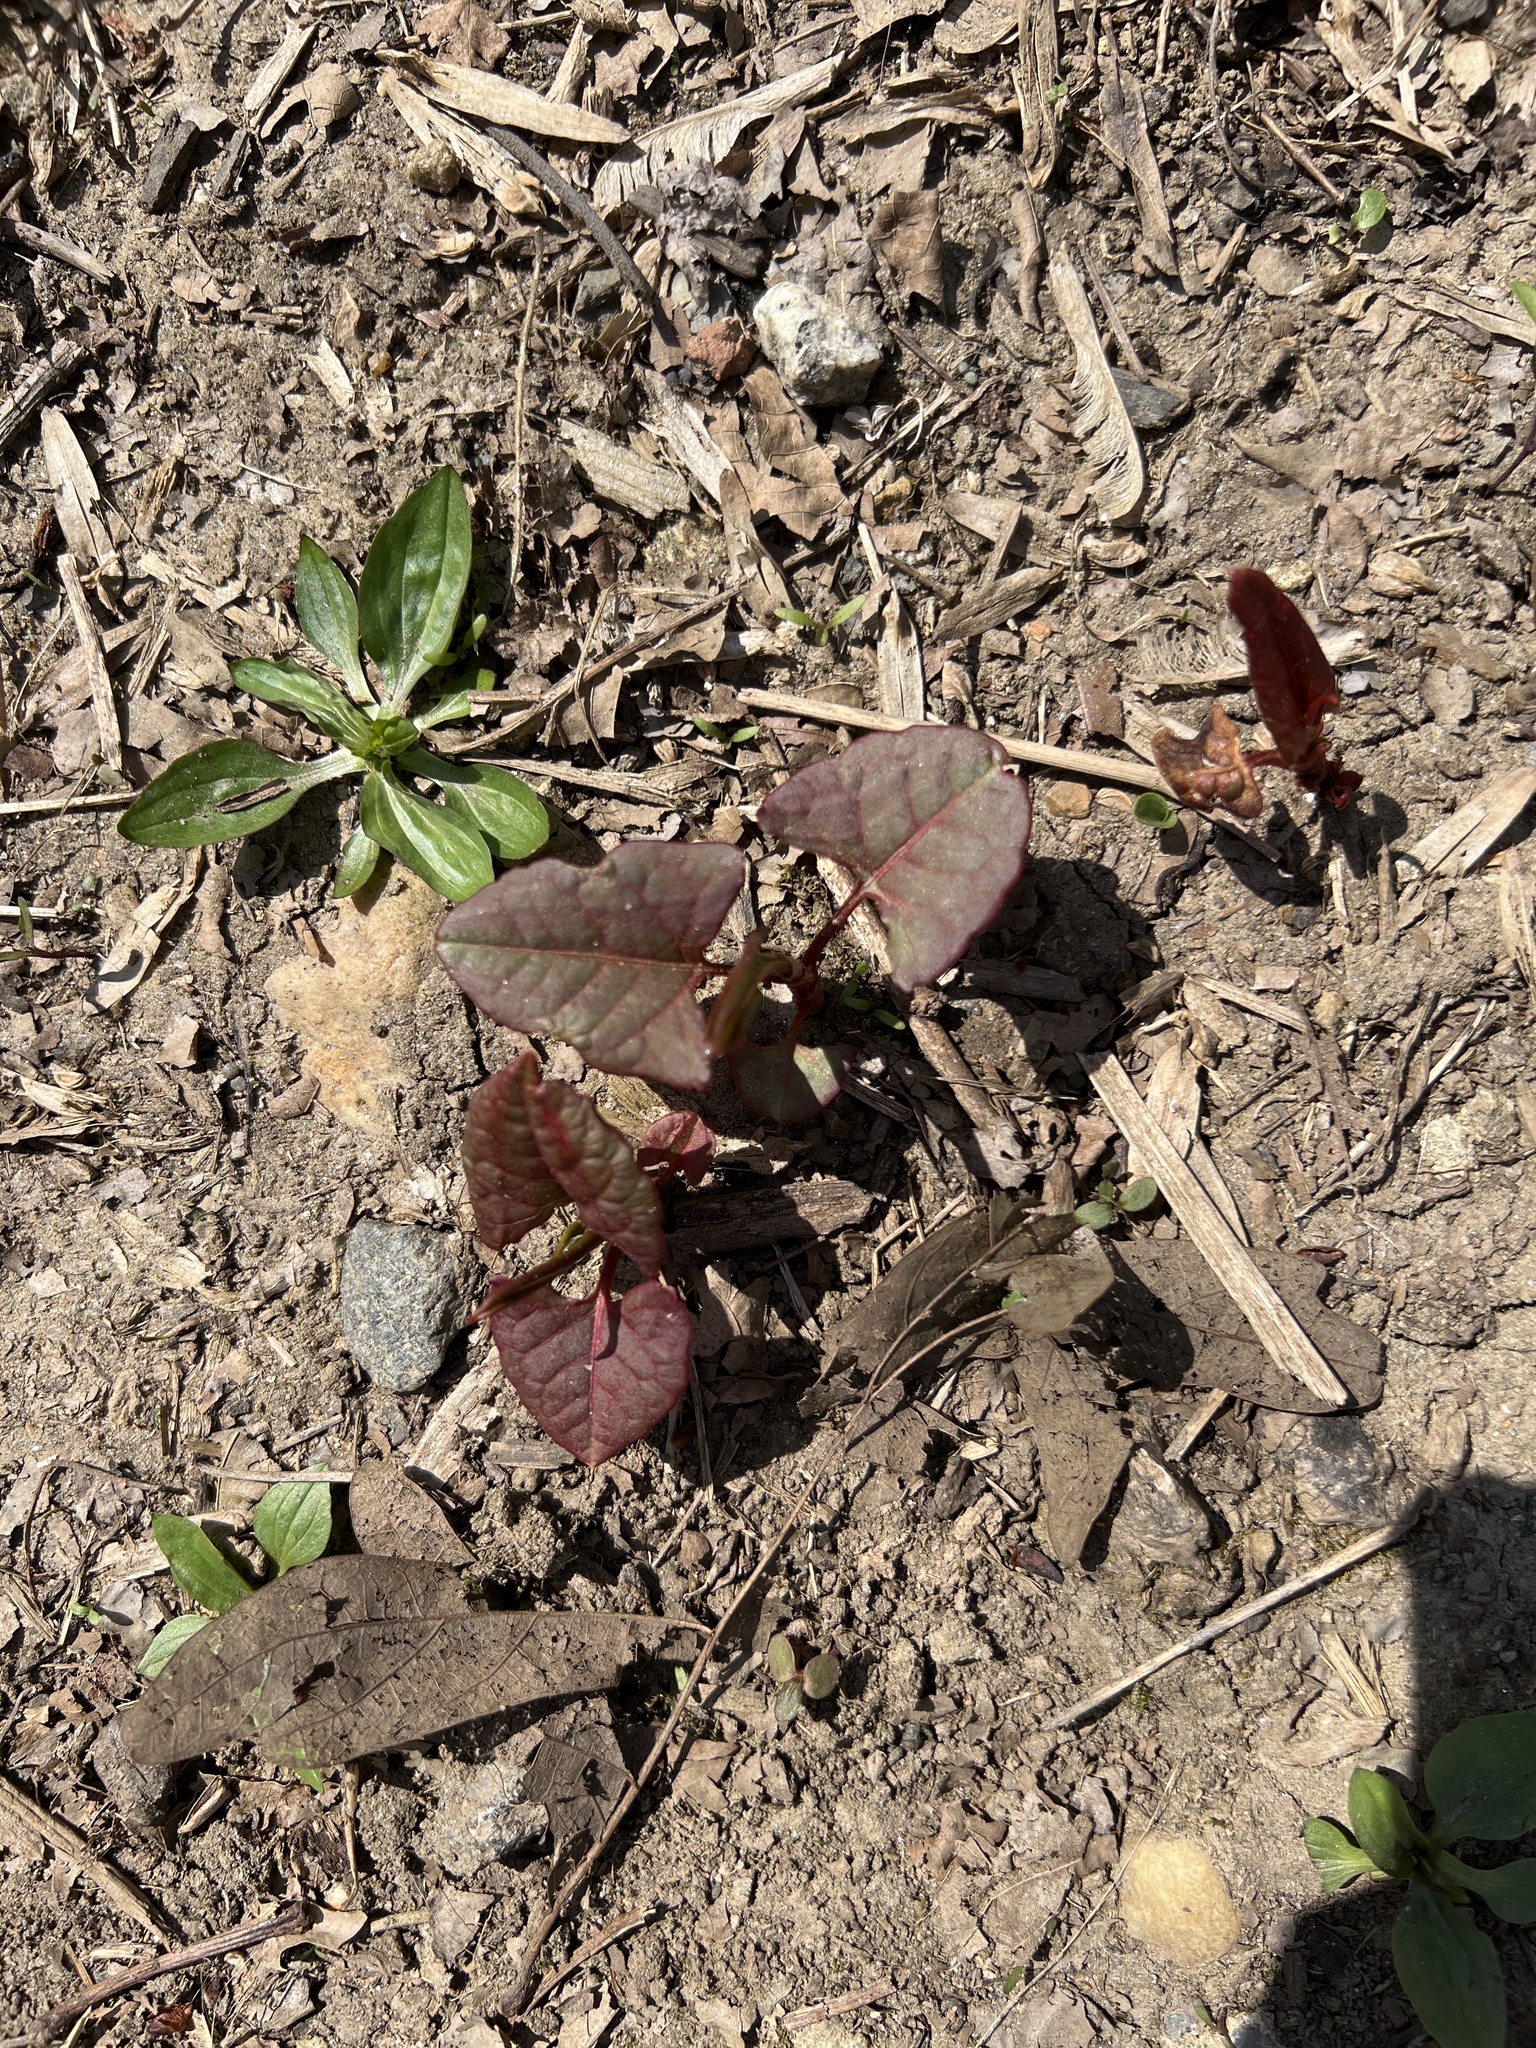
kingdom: Plantae
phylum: Tracheophyta
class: Magnoliopsida
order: Caryophyllales
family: Polygonaceae
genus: Reynoutria
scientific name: Reynoutria japonica
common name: Japanese knotweed
